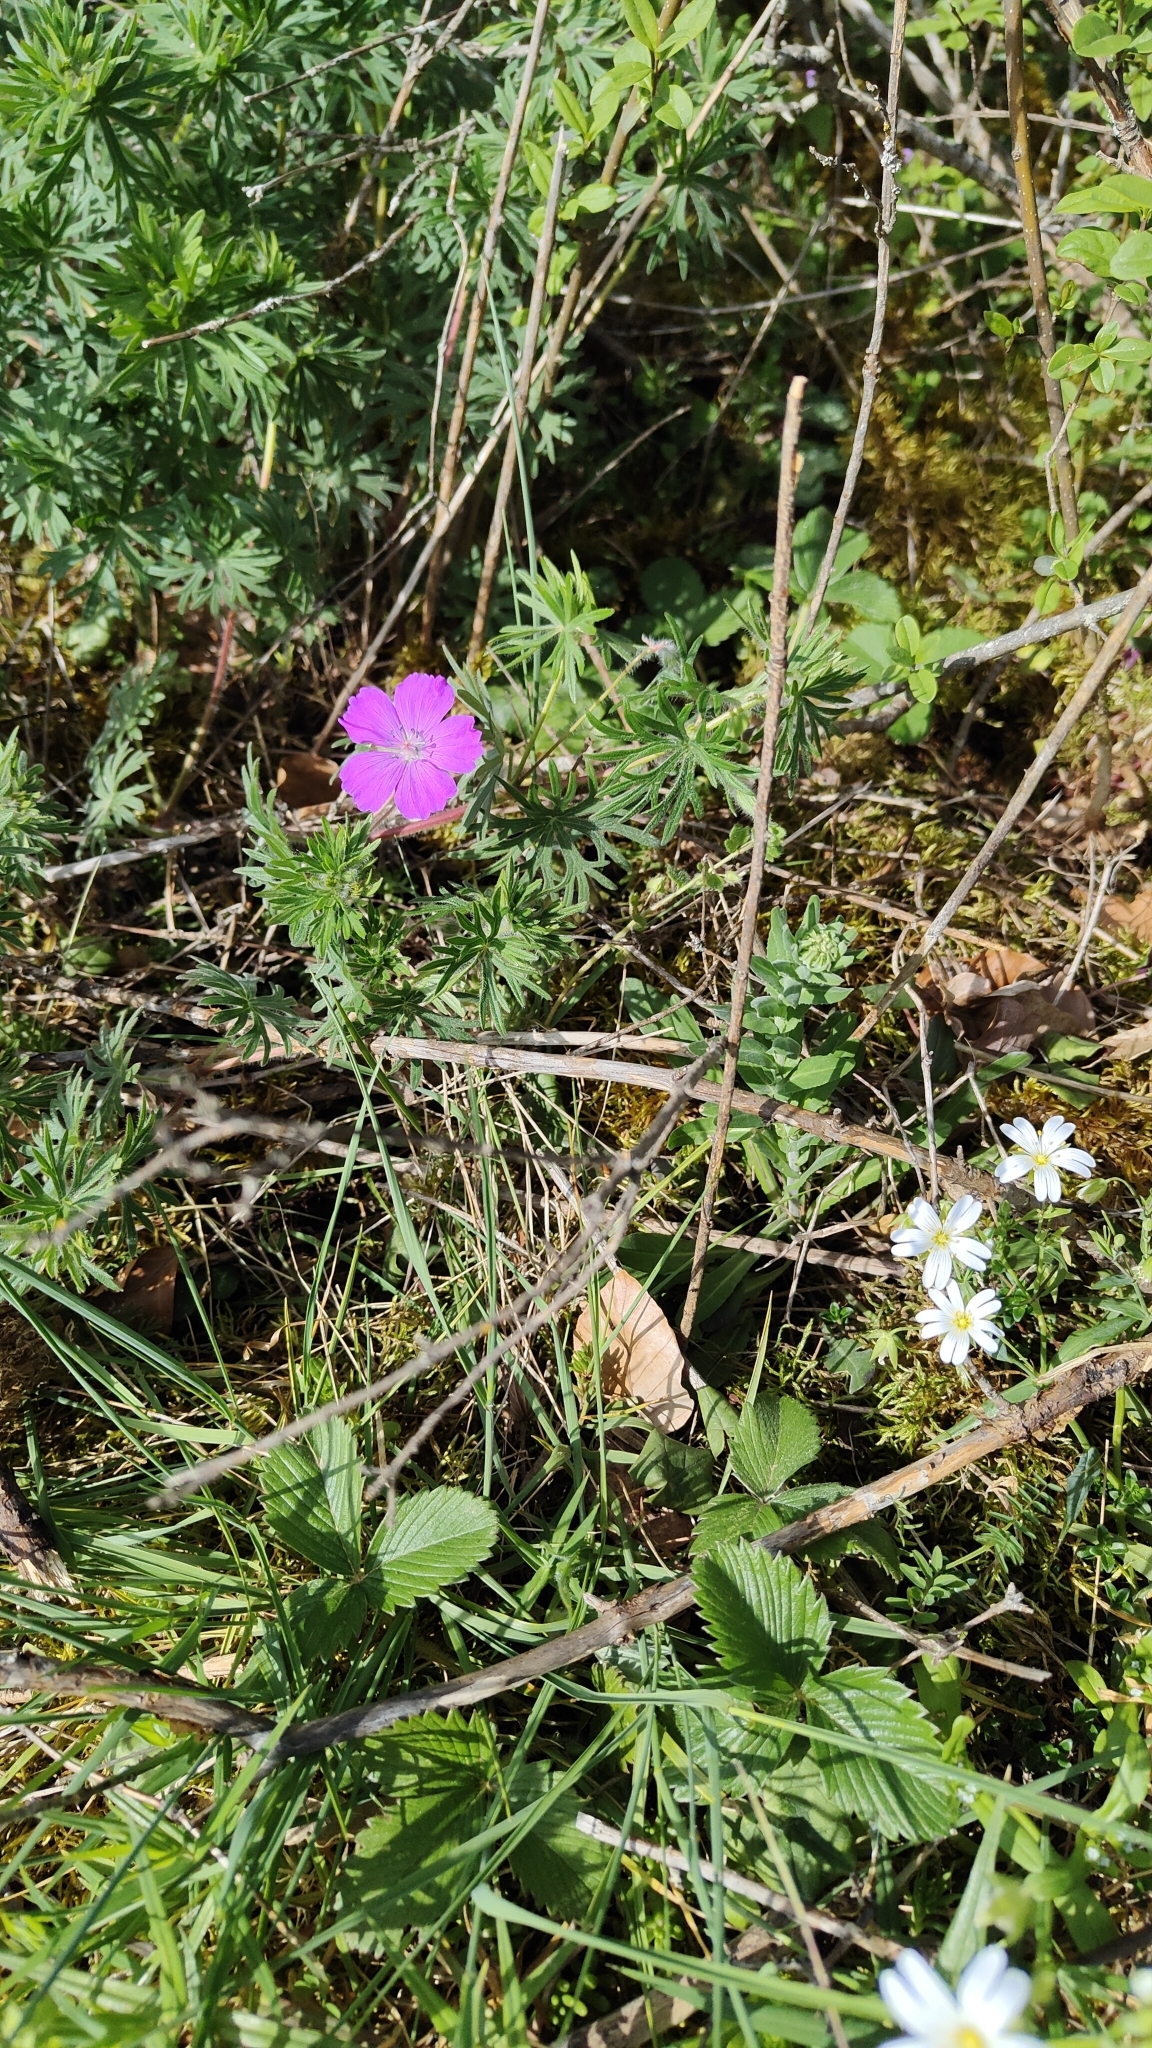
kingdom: Plantae
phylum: Tracheophyta
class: Magnoliopsida
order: Geraniales
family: Geraniaceae
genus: Geranium
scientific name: Geranium sanguineum
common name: Bloody crane's-bill
